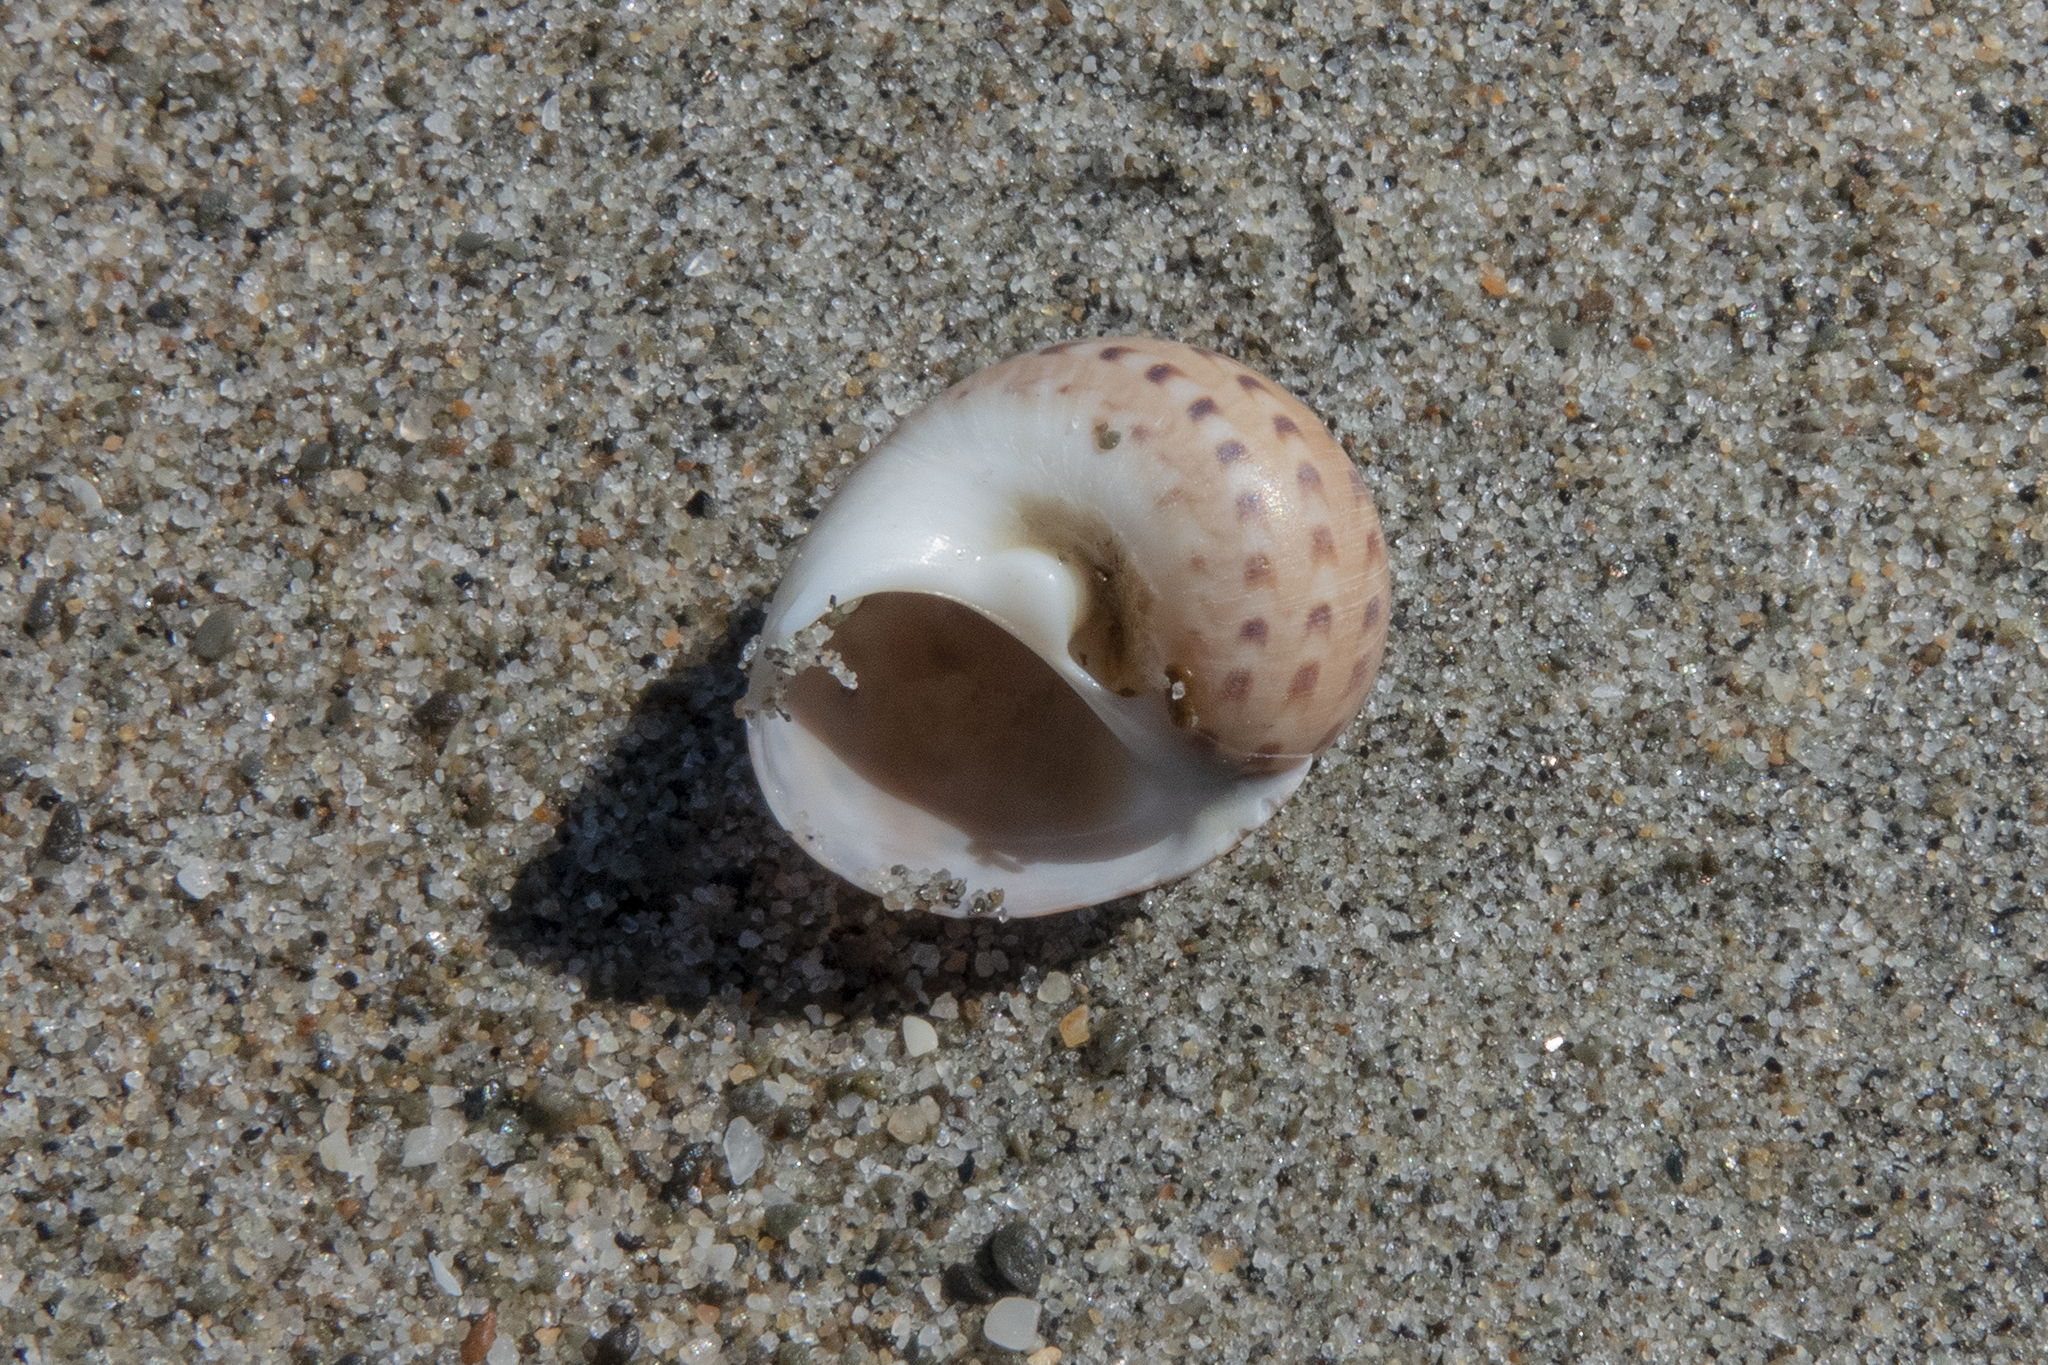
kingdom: Animalia
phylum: Mollusca
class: Gastropoda
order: Littorinimorpha
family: Naticidae
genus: Tanea
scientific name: Tanea zelandica
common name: New zealand moonsnail
